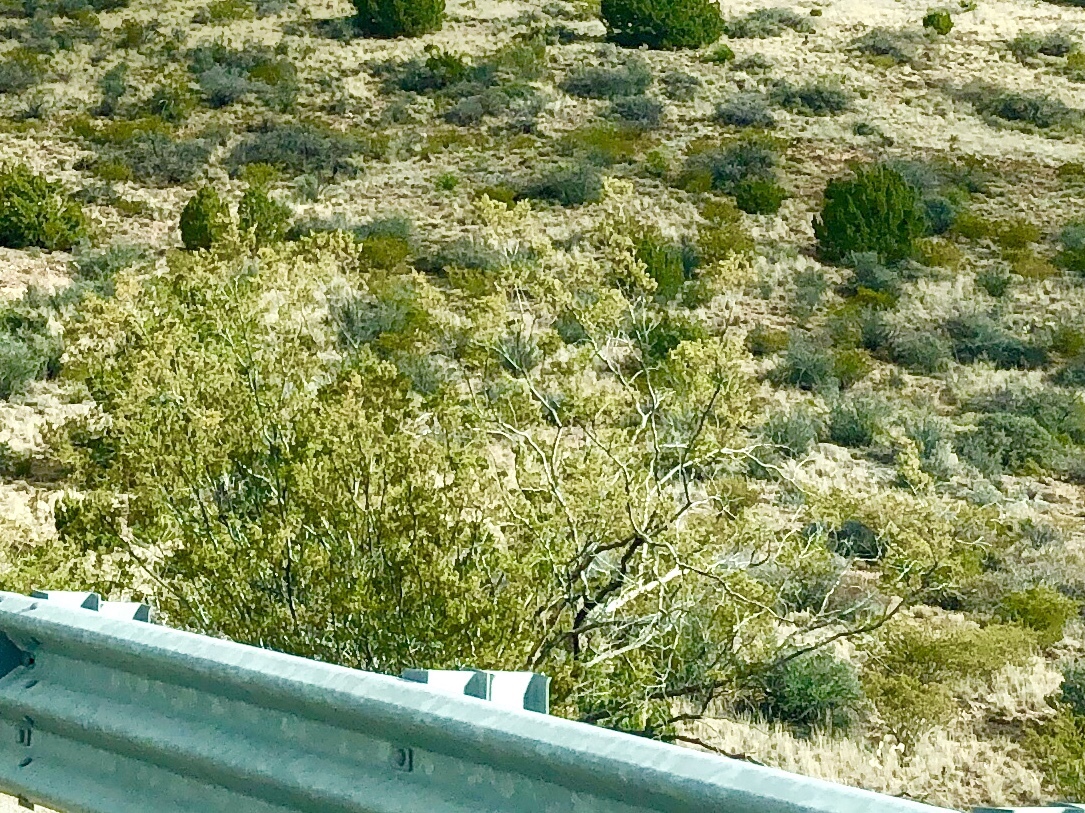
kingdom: Plantae
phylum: Tracheophyta
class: Magnoliopsida
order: Zygophyllales
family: Zygophyllaceae
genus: Larrea
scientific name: Larrea tridentata
